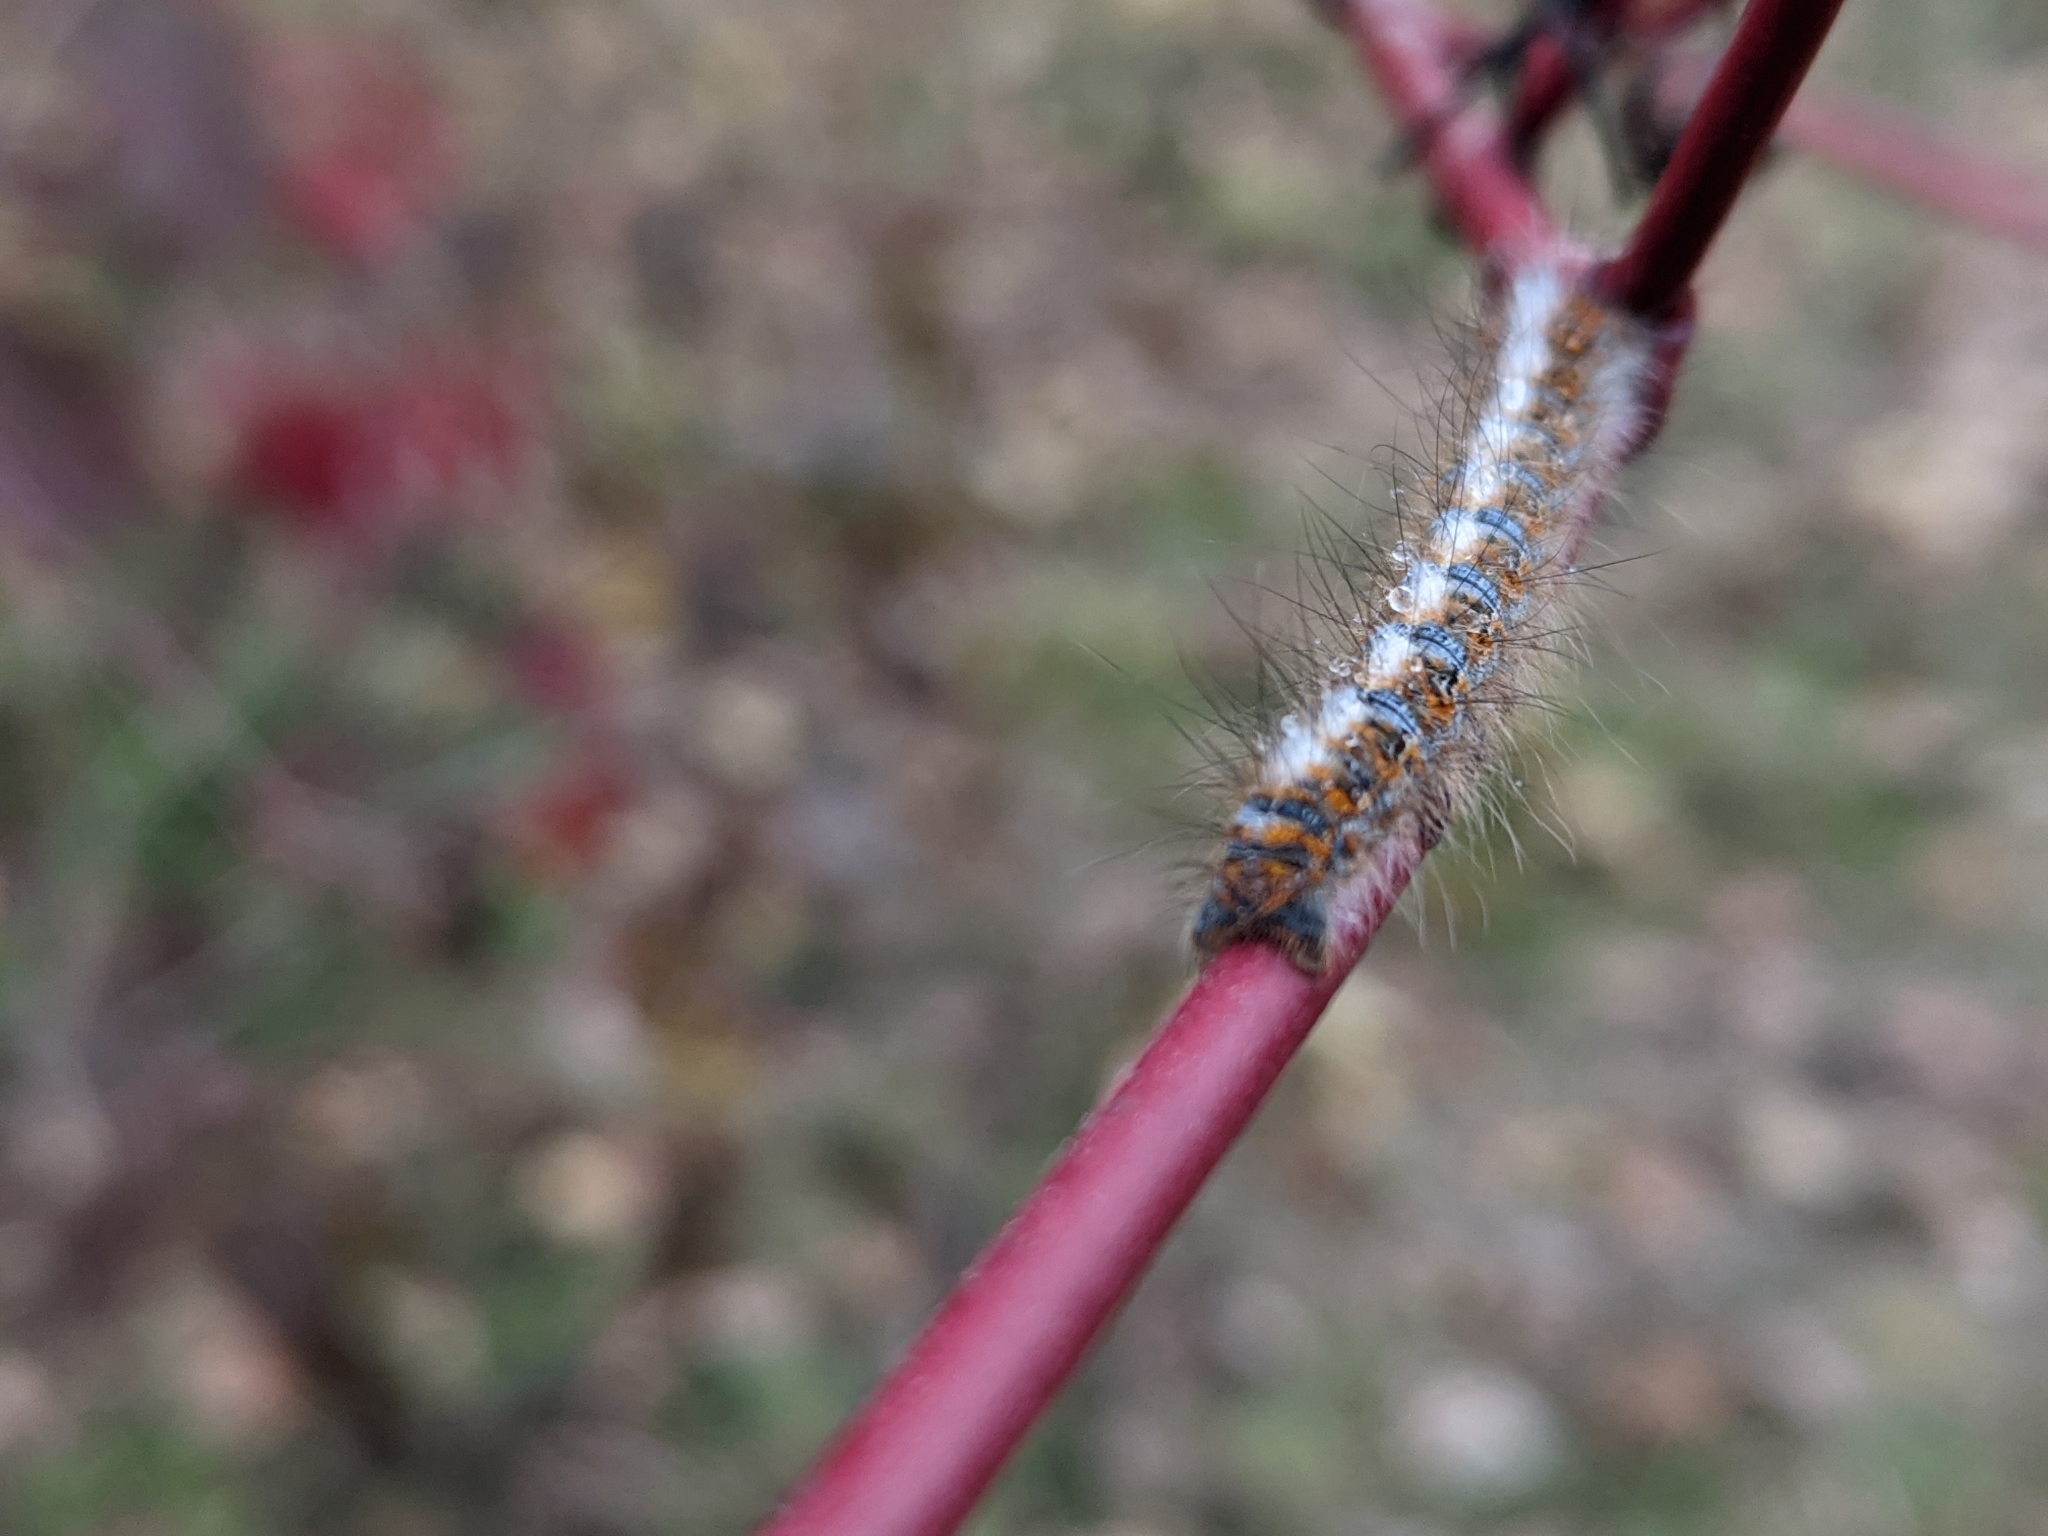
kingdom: Animalia
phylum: Arthropoda
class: Insecta
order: Lepidoptera
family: Lasiocampidae
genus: Lasiocampa
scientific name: Lasiocampa quercus
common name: Oak eggar
